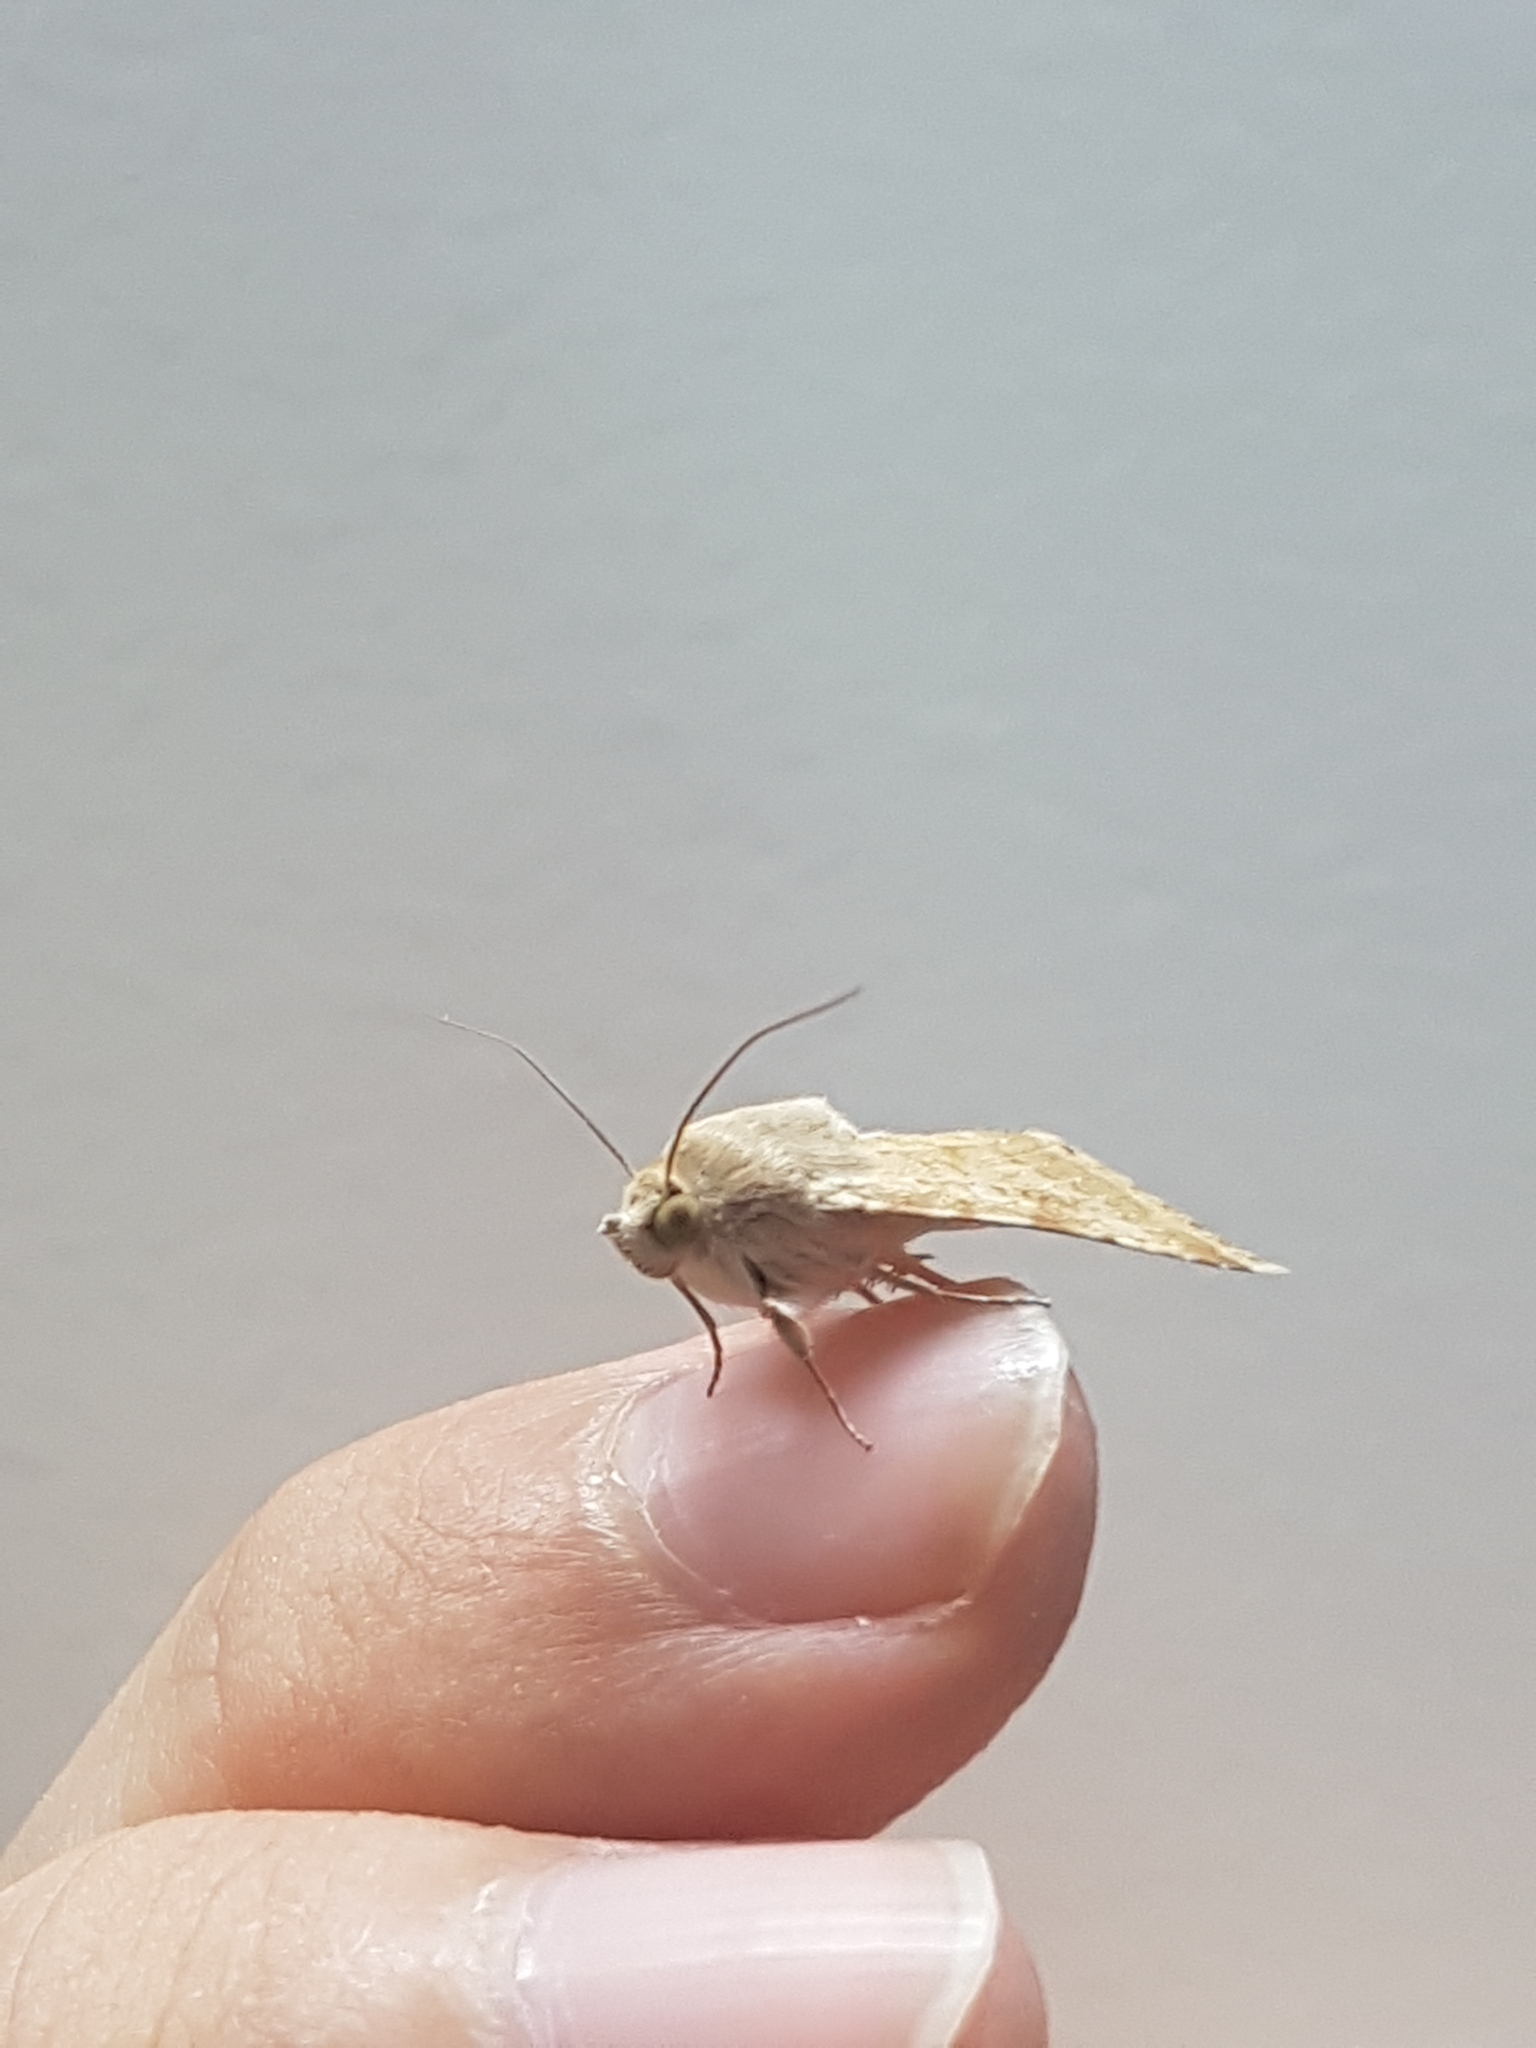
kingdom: Animalia
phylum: Arthropoda
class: Insecta
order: Lepidoptera
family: Noctuidae
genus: Heliothis
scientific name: Heliothis nubigera
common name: Eastern bordered straw
